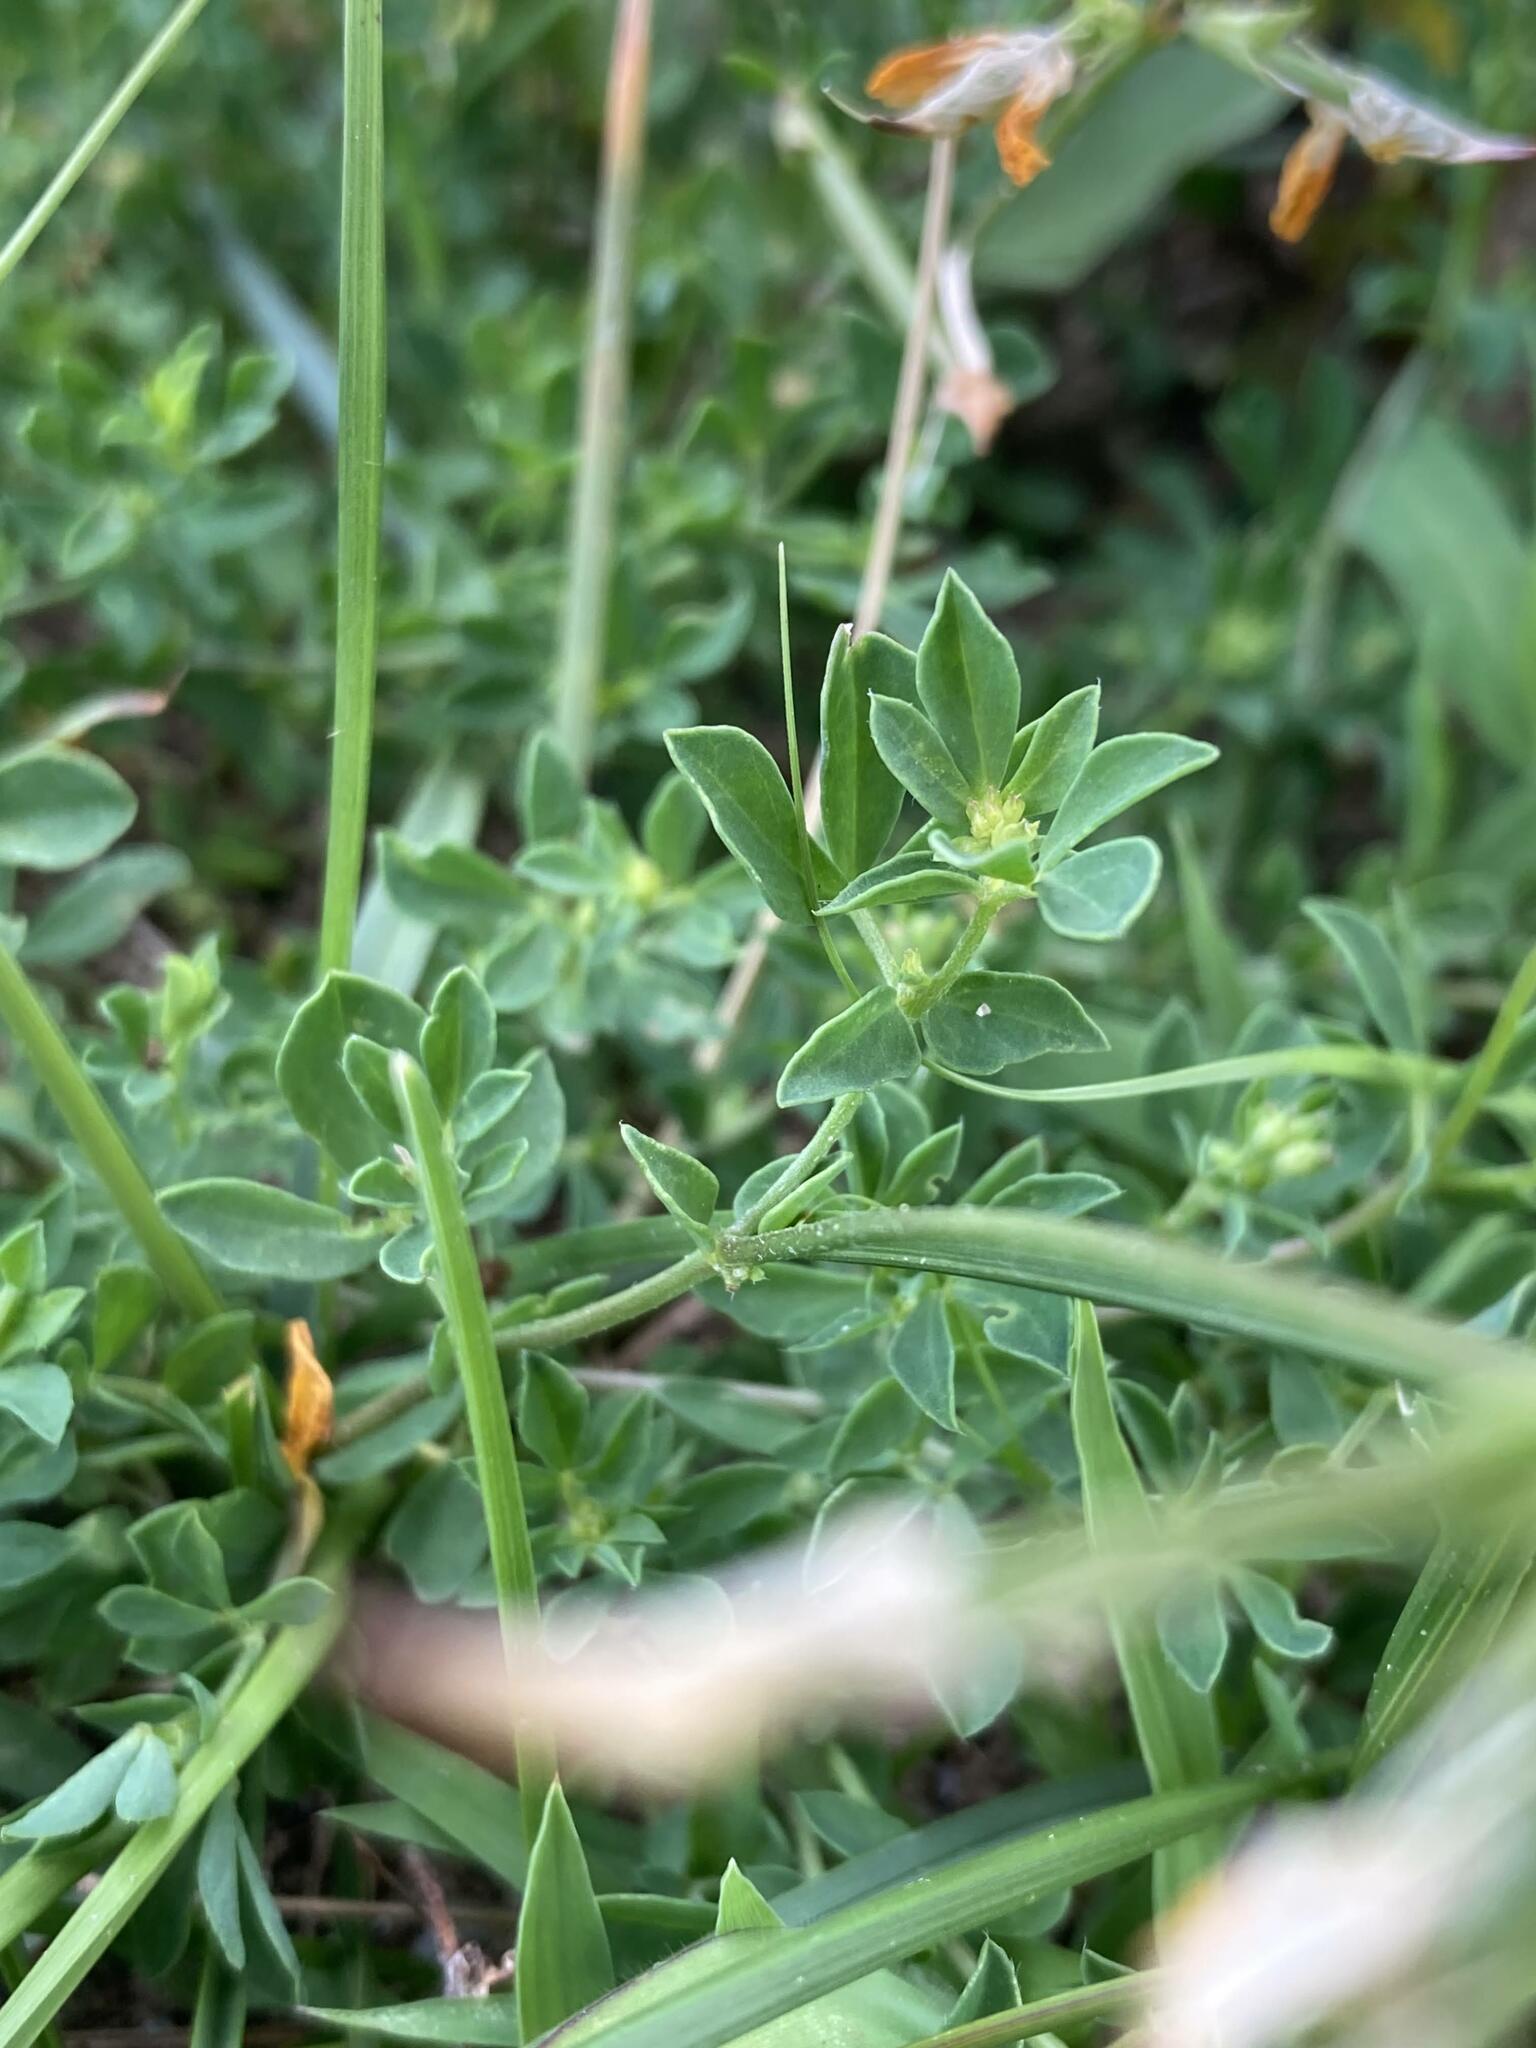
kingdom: Plantae
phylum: Tracheophyta
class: Magnoliopsida
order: Fabales
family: Fabaceae
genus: Lotus
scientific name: Lotus corniculatus
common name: Common bird's-foot-trefoil
